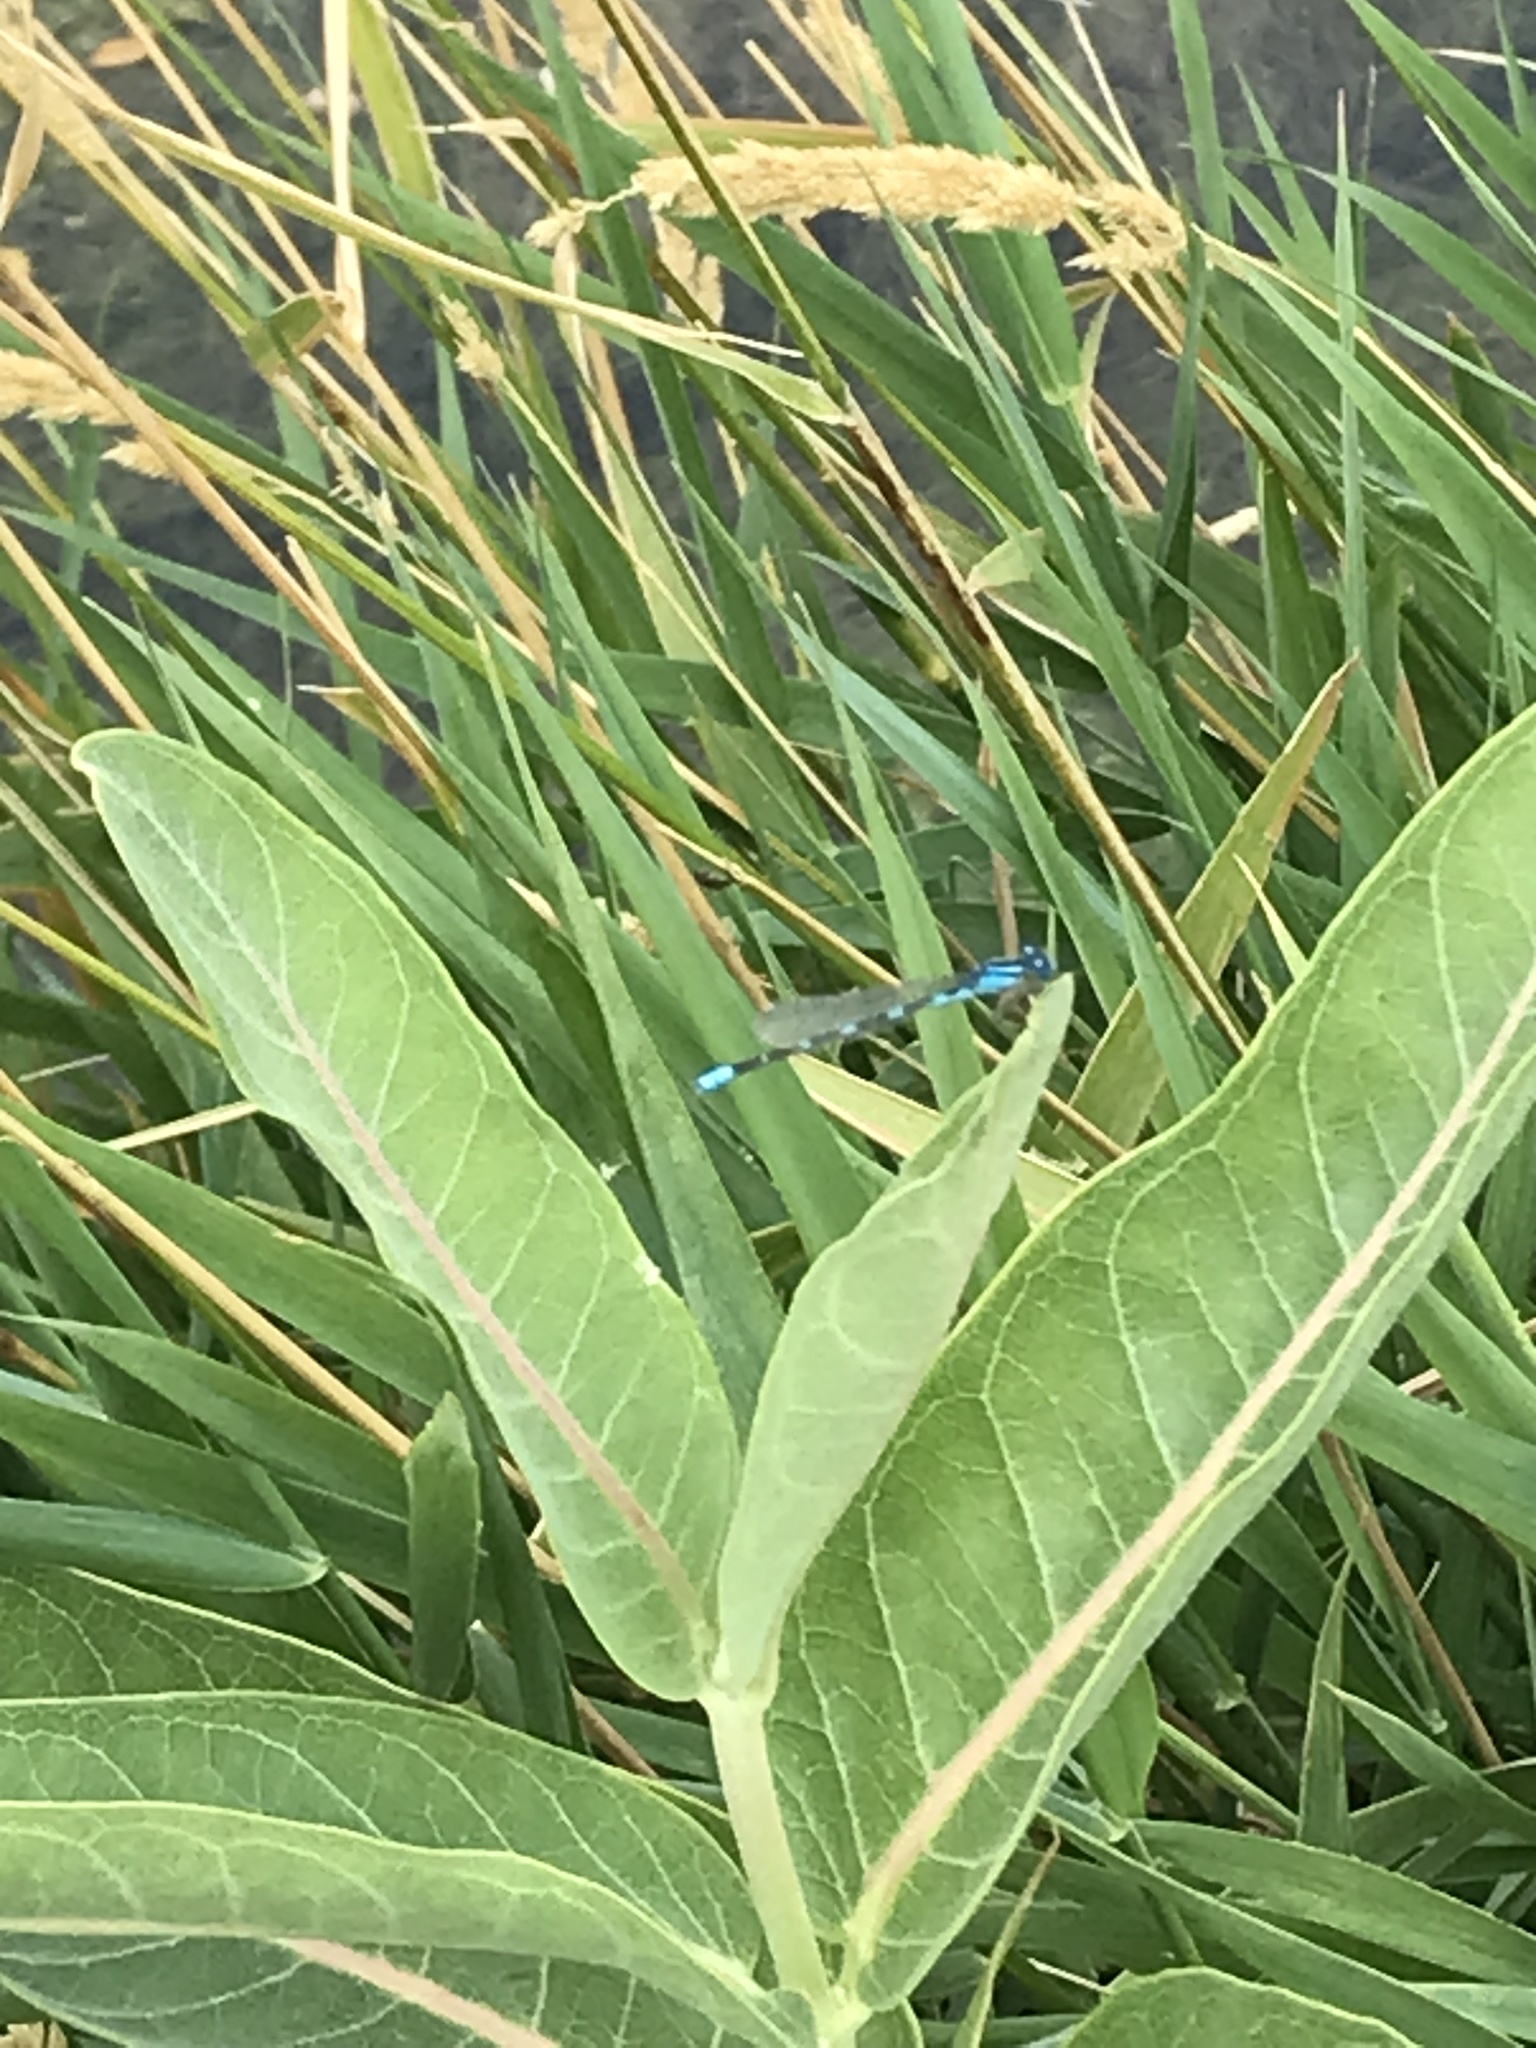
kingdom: Animalia
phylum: Arthropoda
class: Insecta
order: Odonata
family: Coenagrionidae
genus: Enallagma
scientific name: Enallagma carunculatum
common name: Tule bluet
